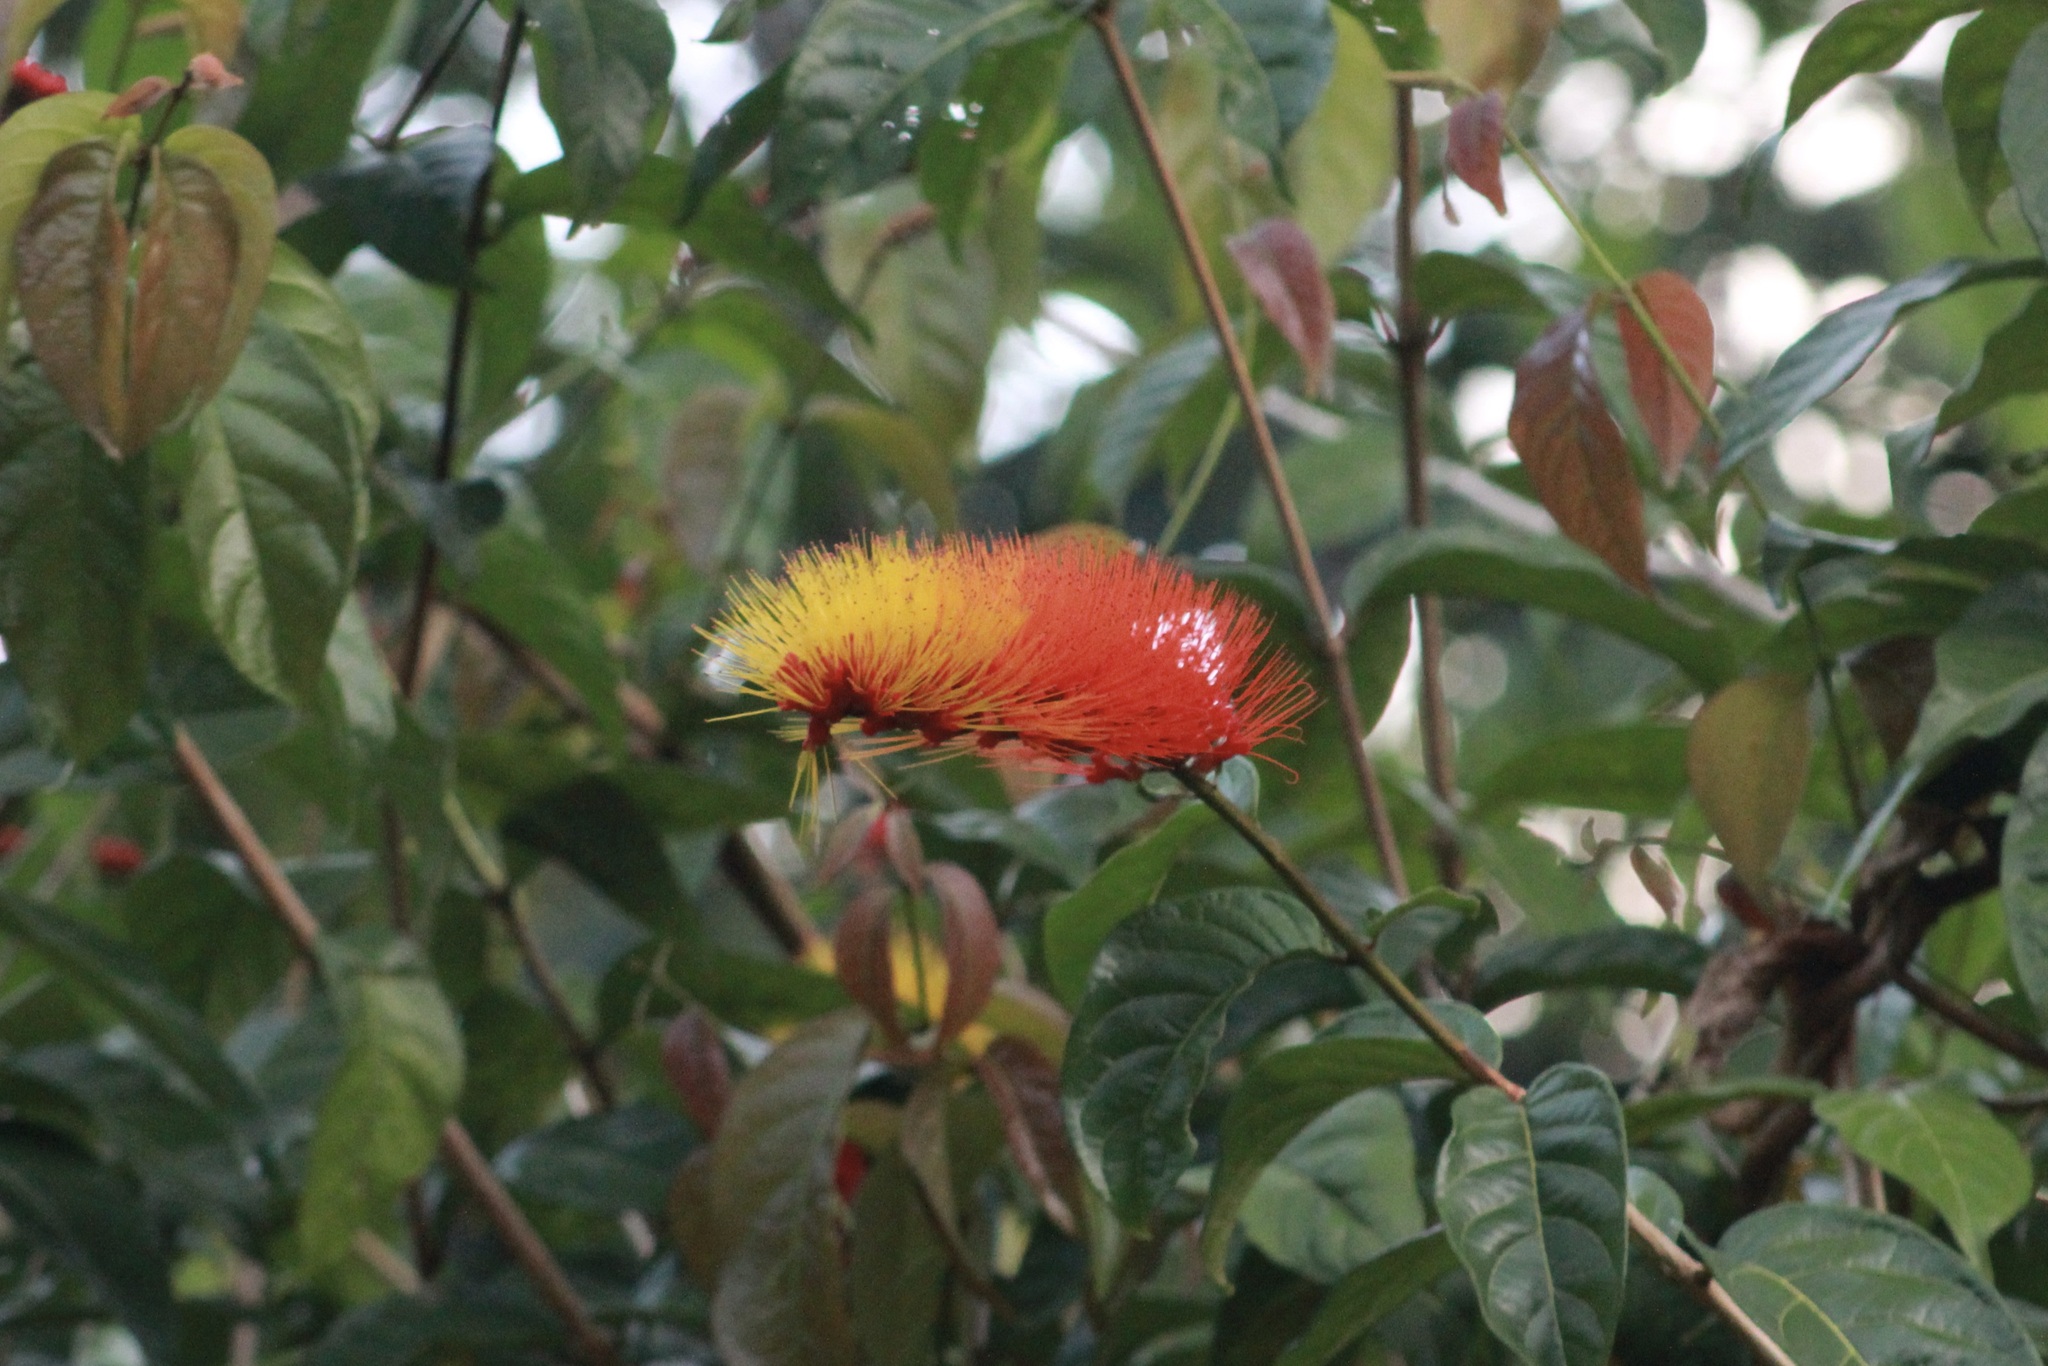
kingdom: Plantae
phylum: Tracheophyta
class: Magnoliopsida
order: Myrtales
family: Combretaceae
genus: Combretum
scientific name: Combretum fruticosum
